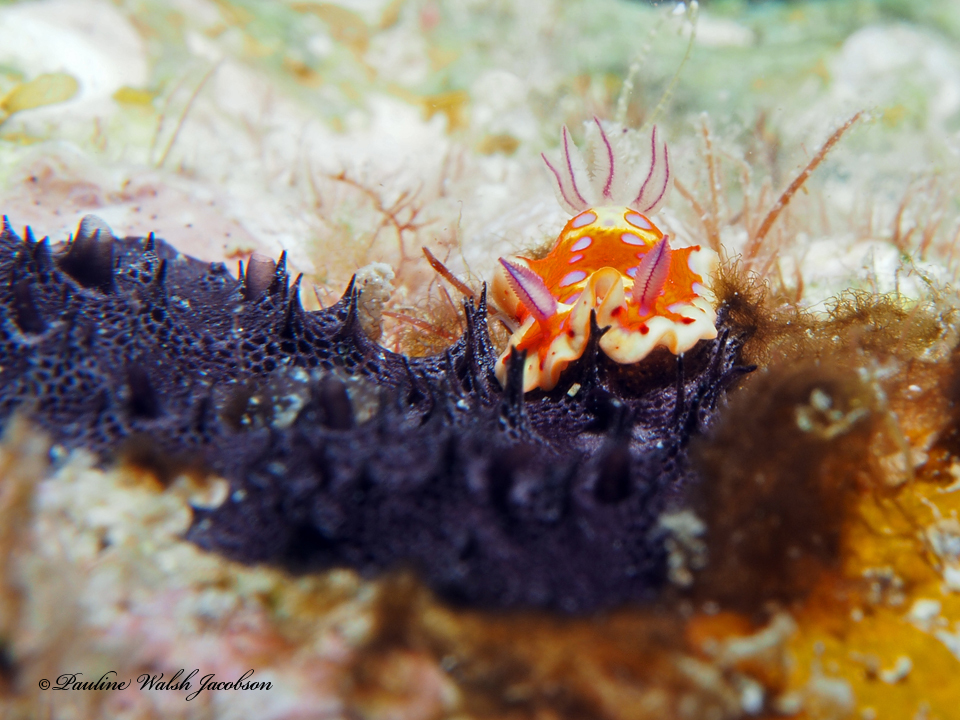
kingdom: Animalia
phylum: Mollusca
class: Gastropoda
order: Nudibranchia
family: Chromodorididae
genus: Felimida
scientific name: Felimida binza
